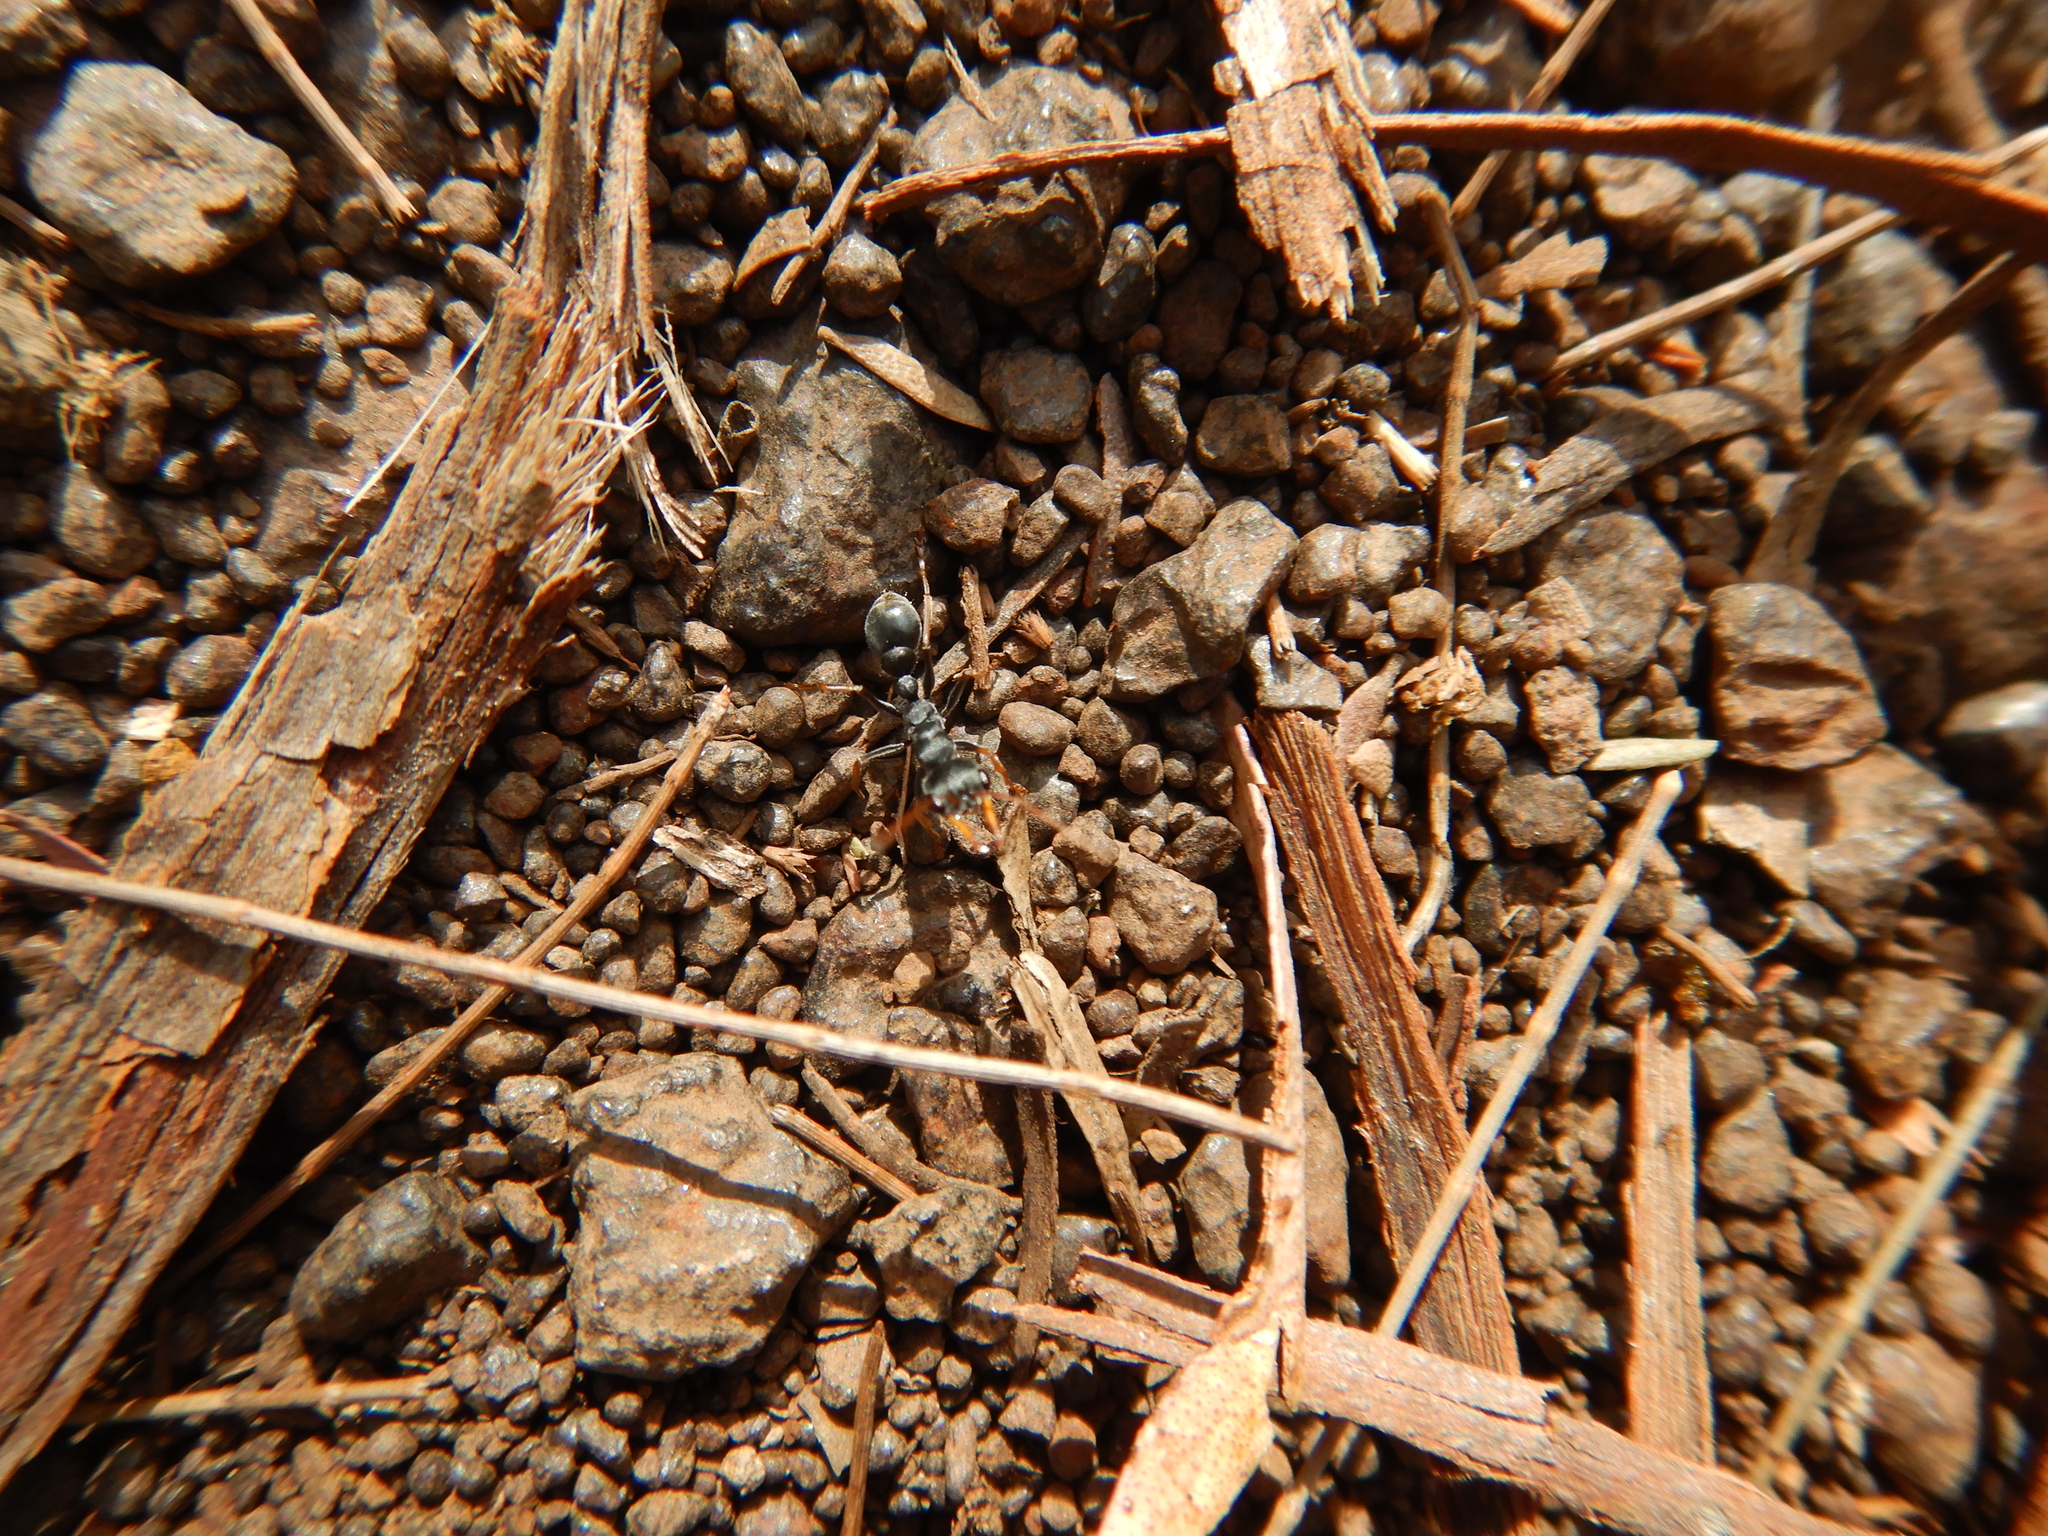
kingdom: Animalia
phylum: Arthropoda
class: Insecta
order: Hymenoptera
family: Formicidae
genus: Myrmecia
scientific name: Myrmecia pilosula
